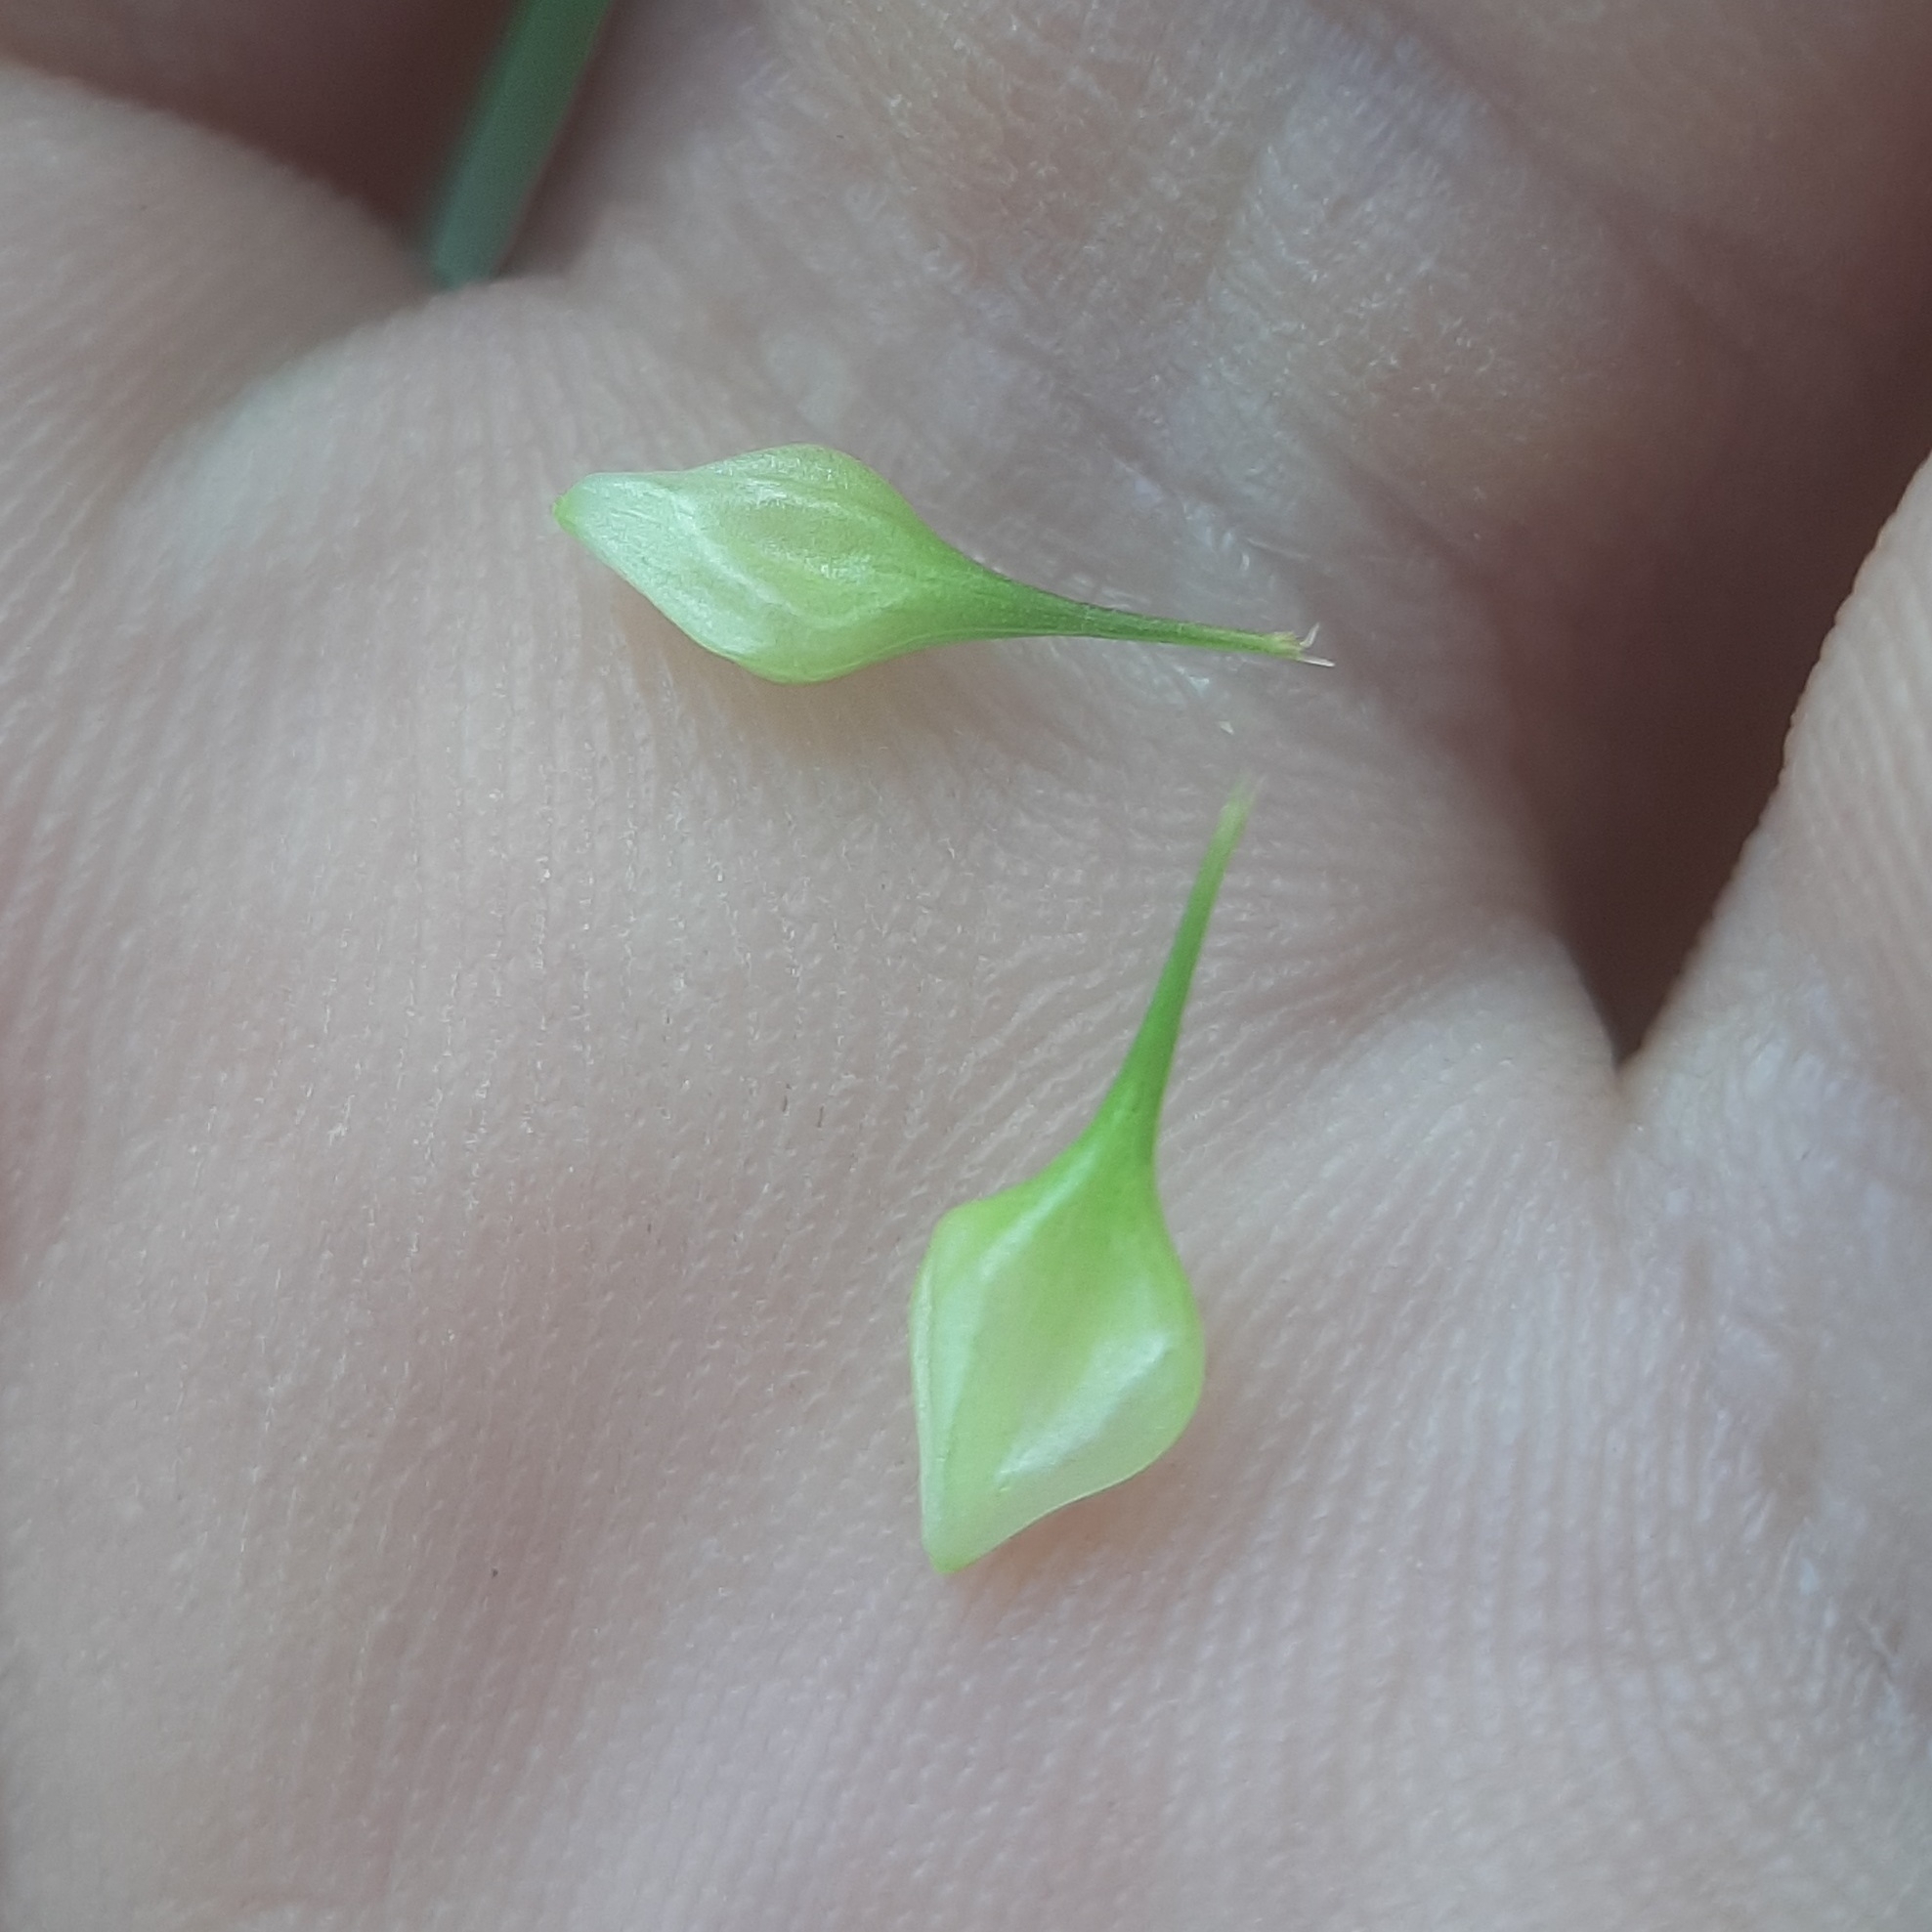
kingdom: Plantae
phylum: Tracheophyta
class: Liliopsida
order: Poales
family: Cyperaceae
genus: Carex
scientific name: Carex lurida
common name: Sallow sedge
